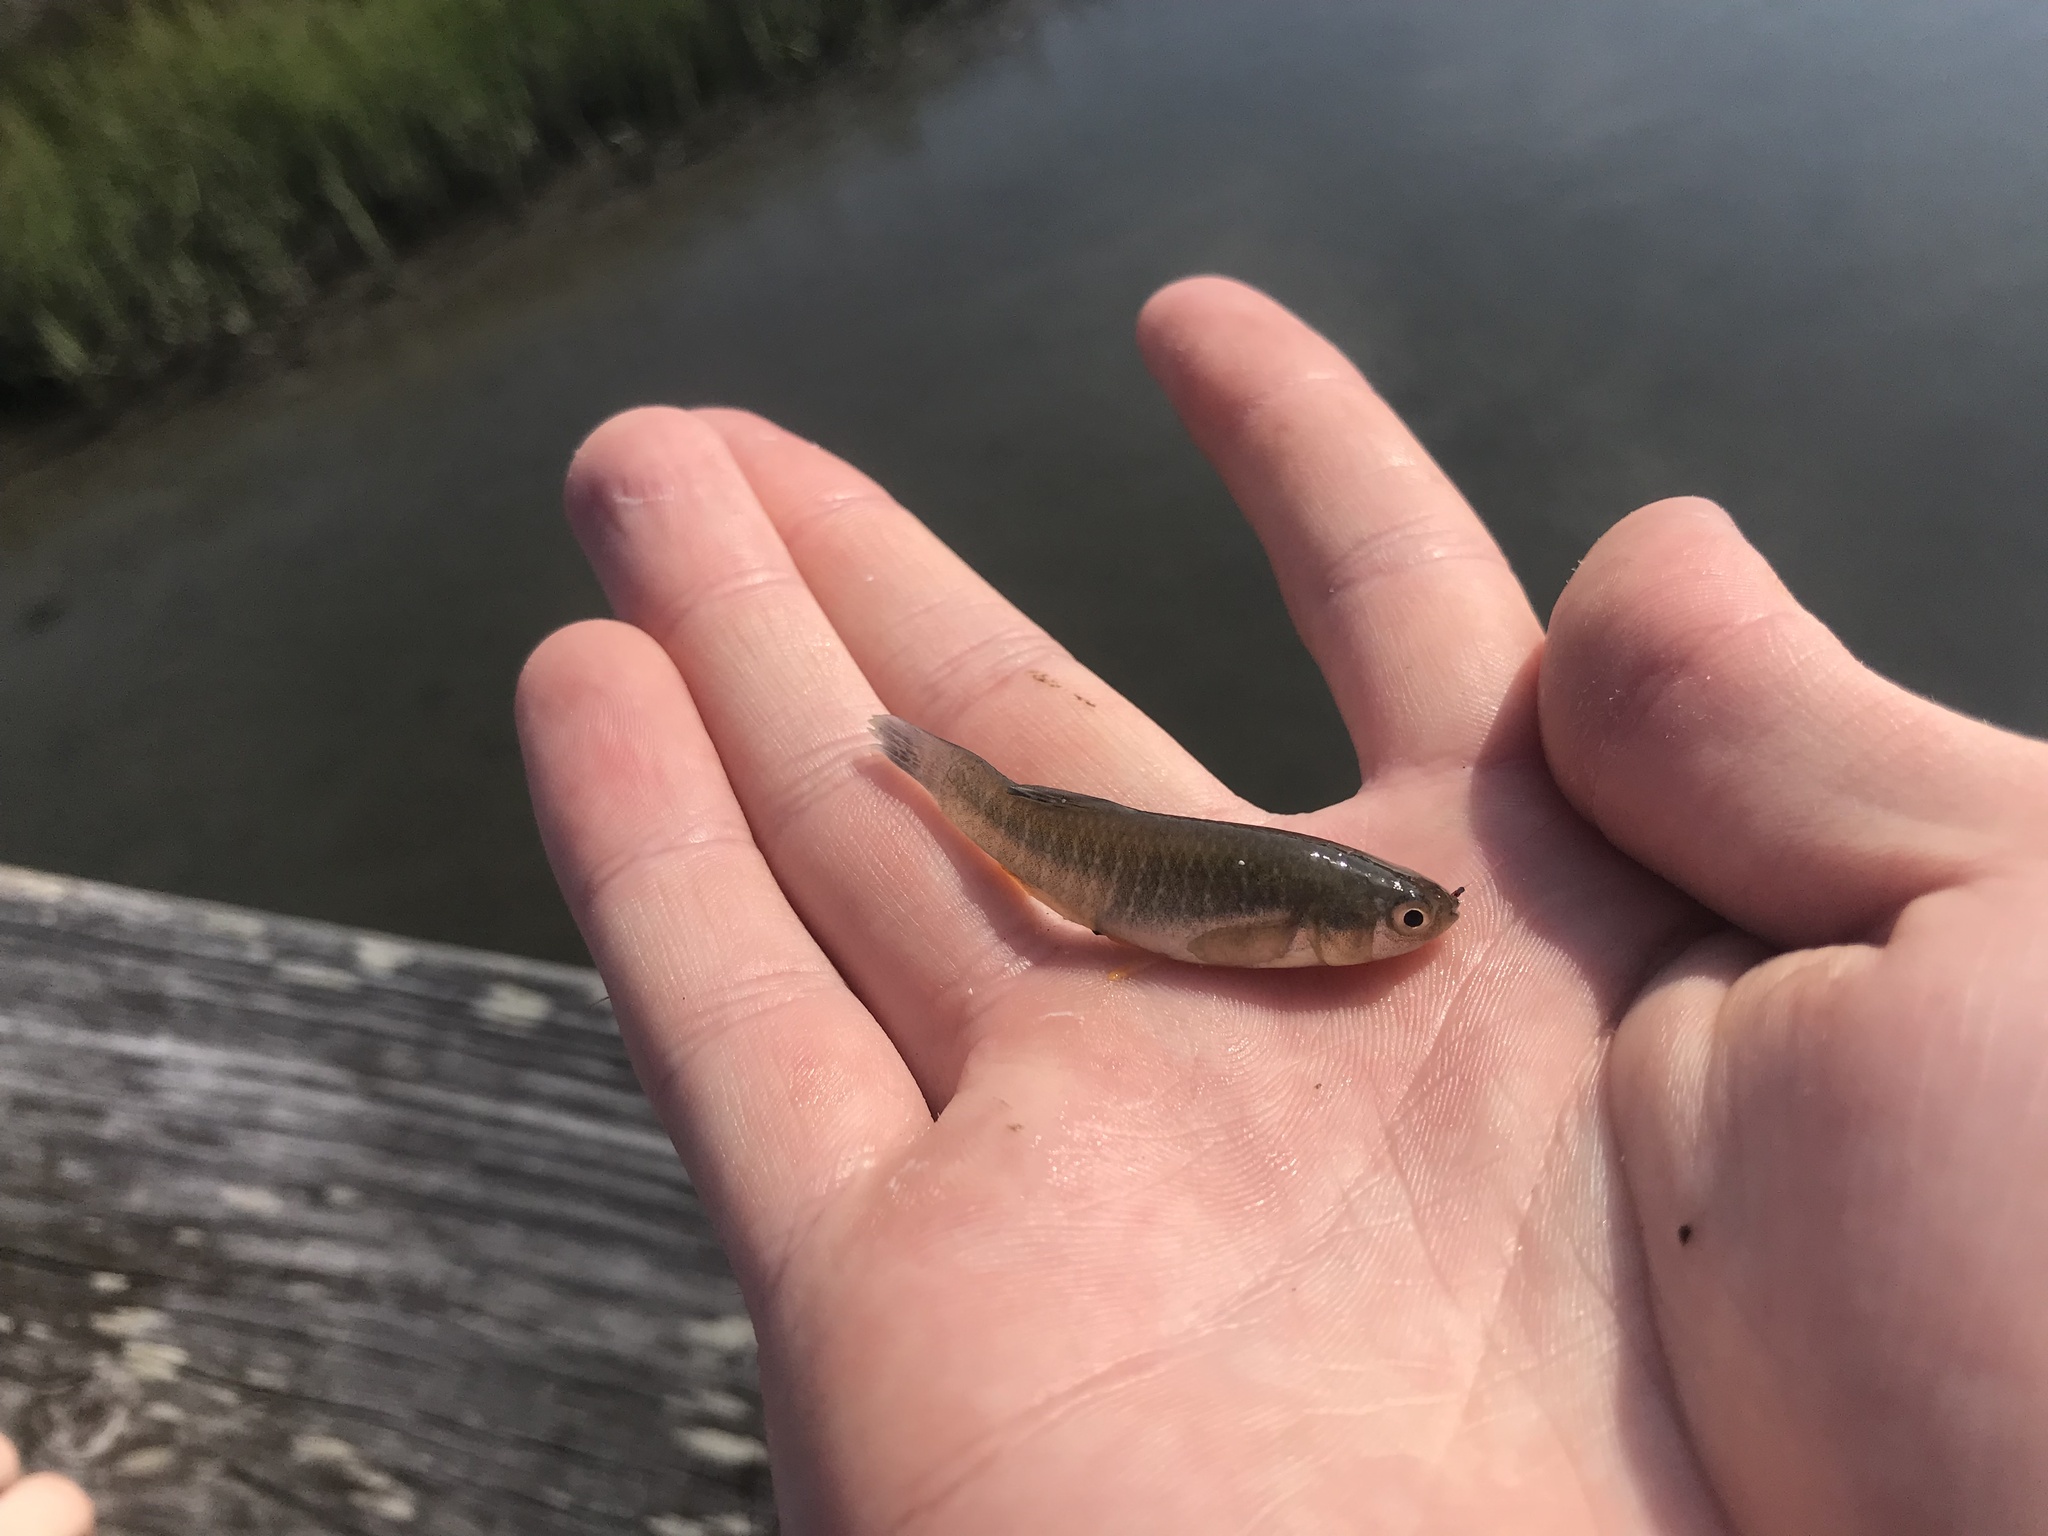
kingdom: Animalia
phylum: Chordata
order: Cyprinodontiformes
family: Fundulidae
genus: Fundulus
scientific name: Fundulus heteroclitus
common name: Mummichog
